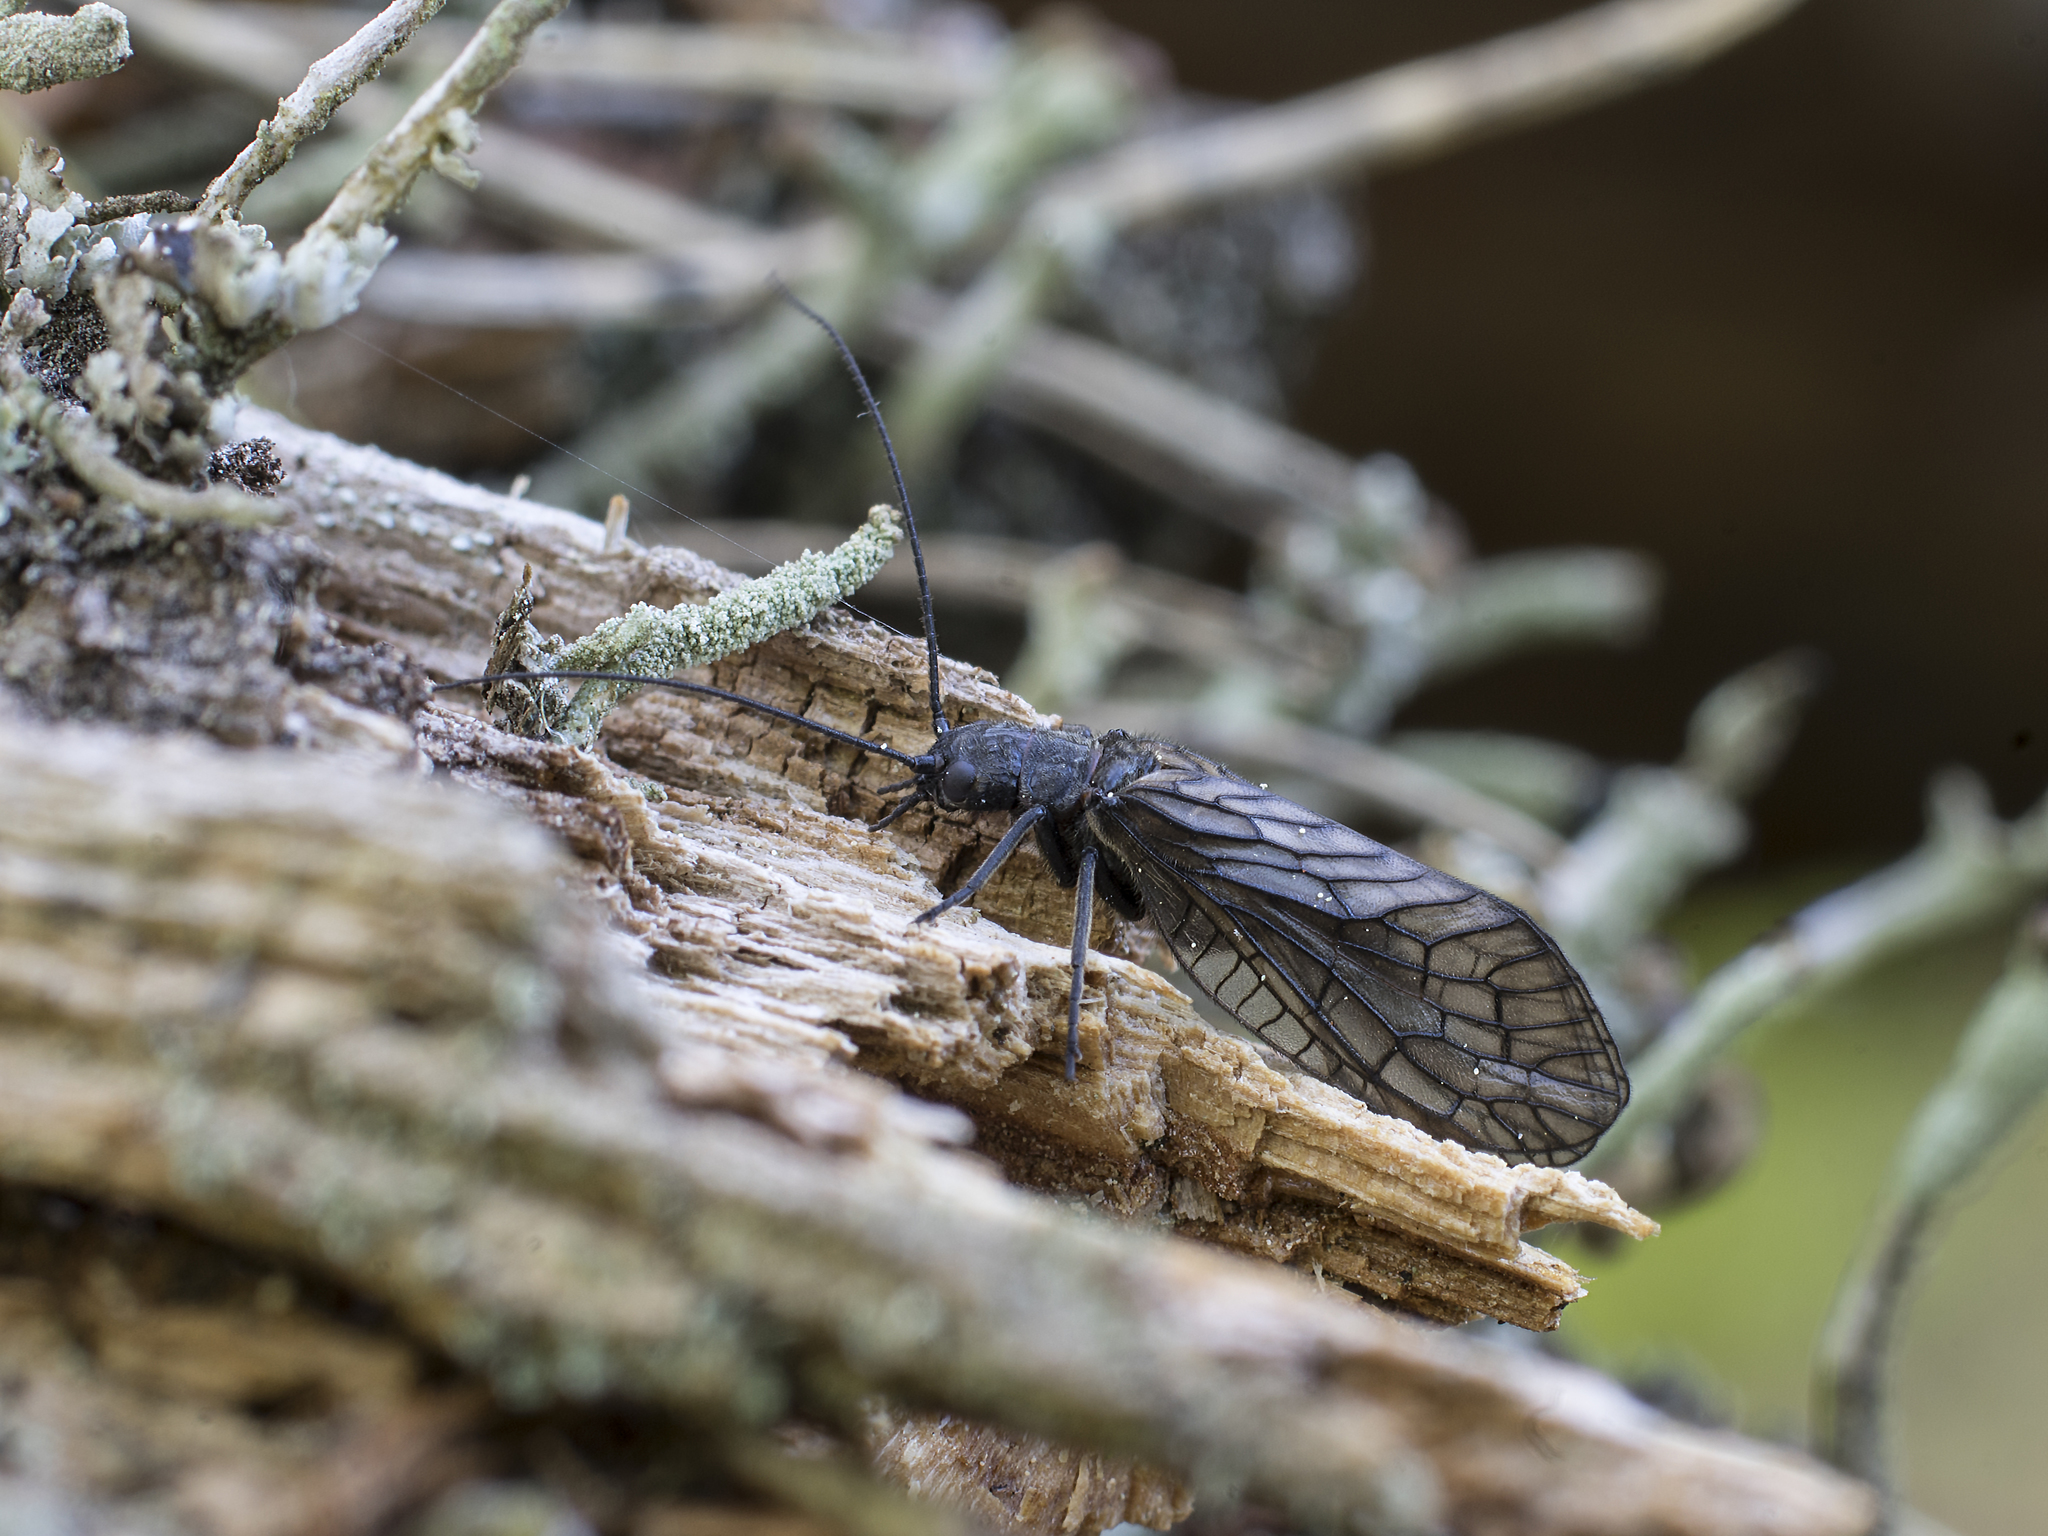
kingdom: Animalia
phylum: Arthropoda
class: Insecta
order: Megaloptera
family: Sialidae
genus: Sialis
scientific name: Sialis
